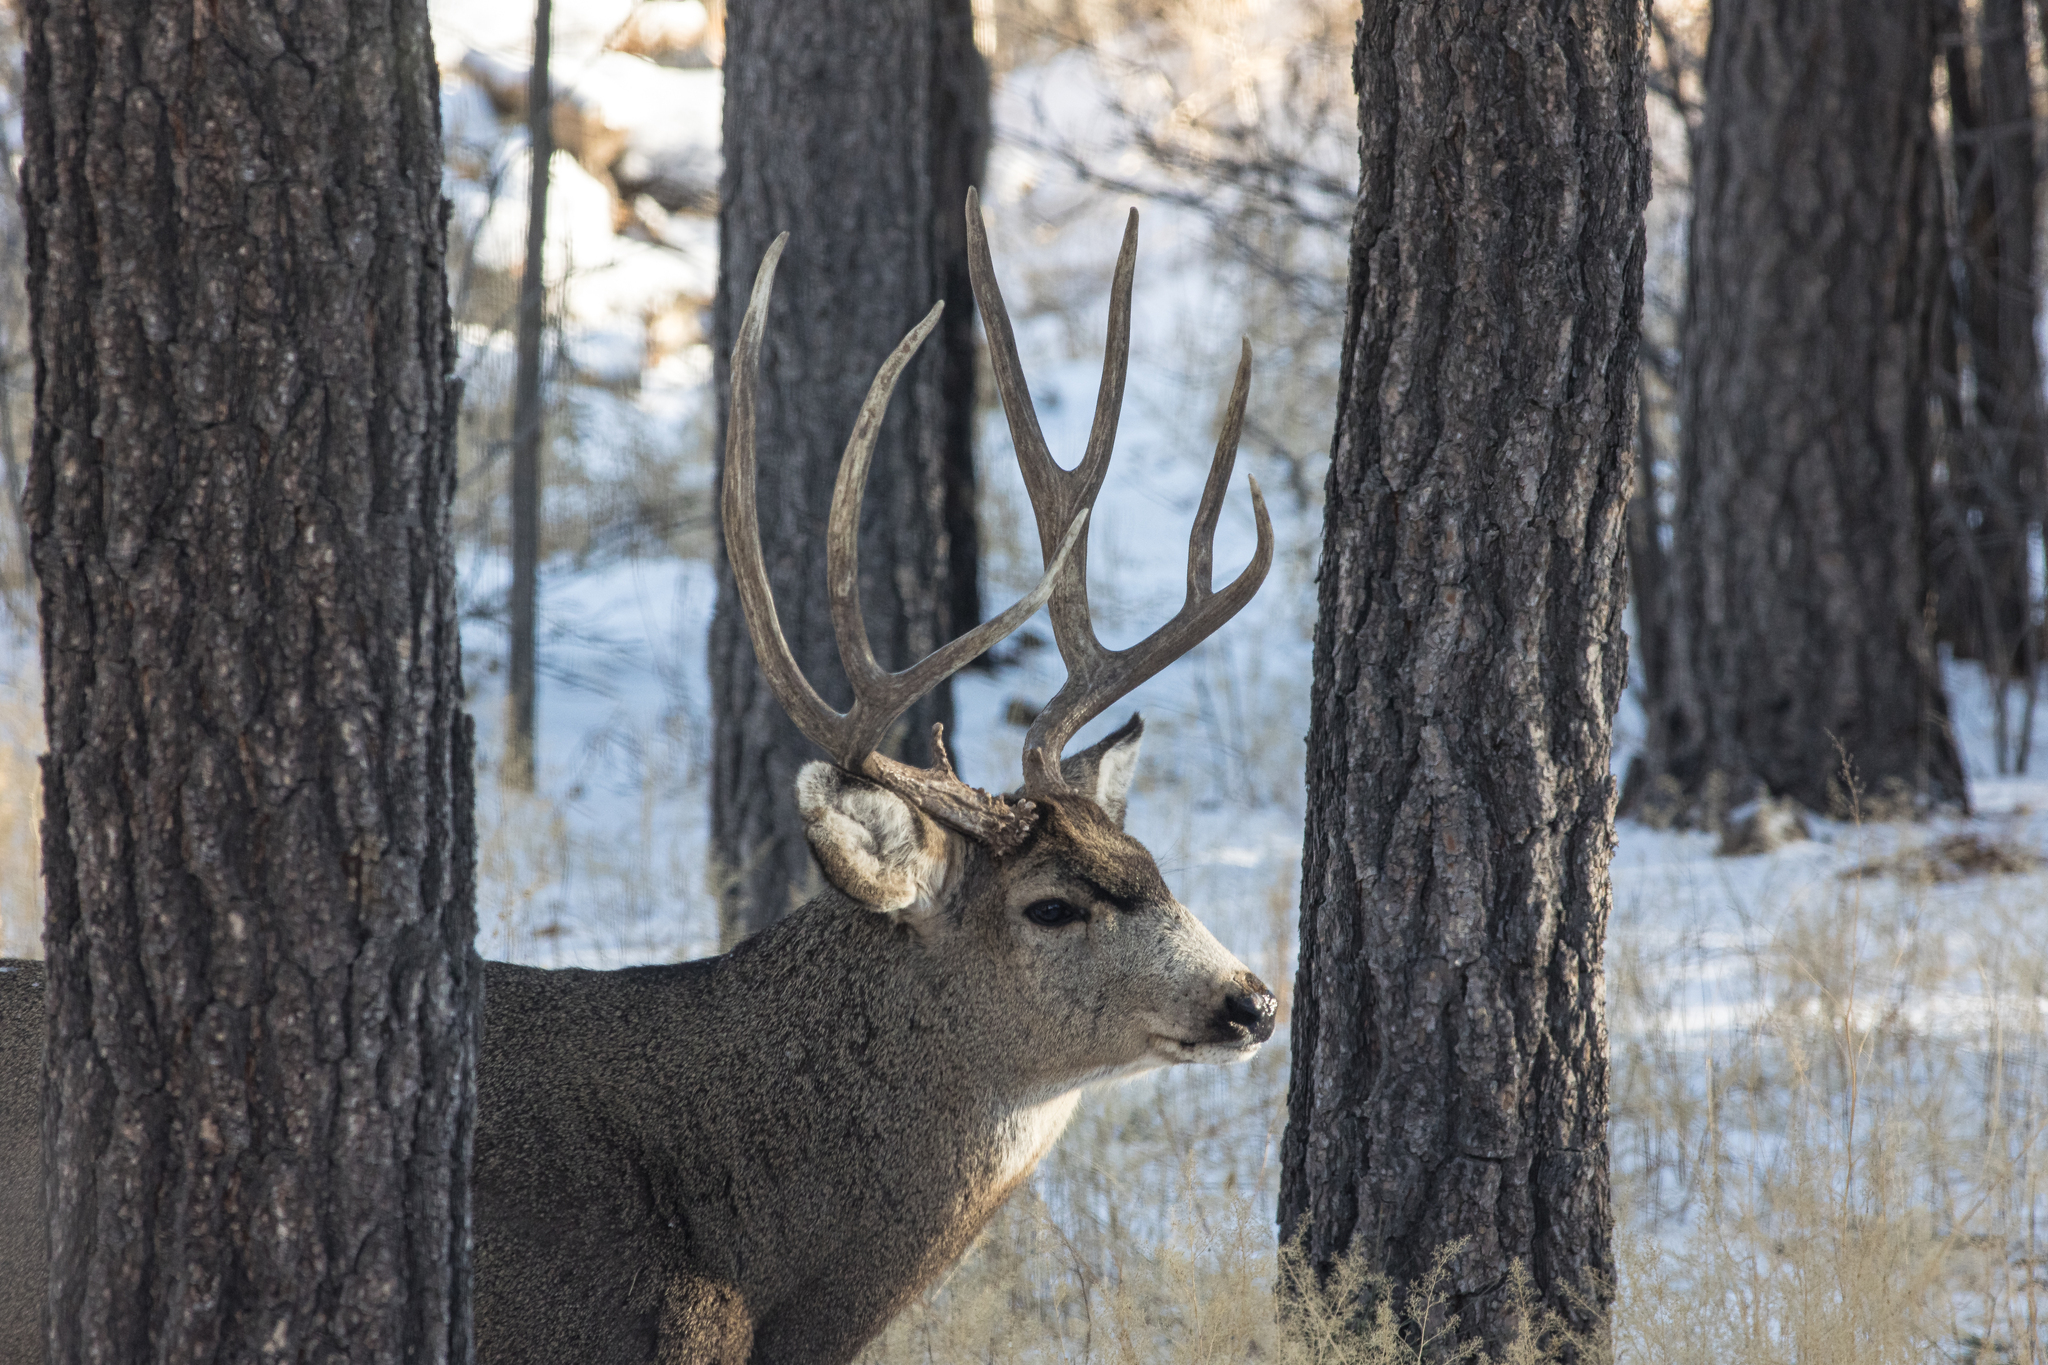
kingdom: Animalia
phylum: Chordata
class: Mammalia
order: Artiodactyla
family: Cervidae
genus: Odocoileus
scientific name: Odocoileus hemionus
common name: Mule deer
